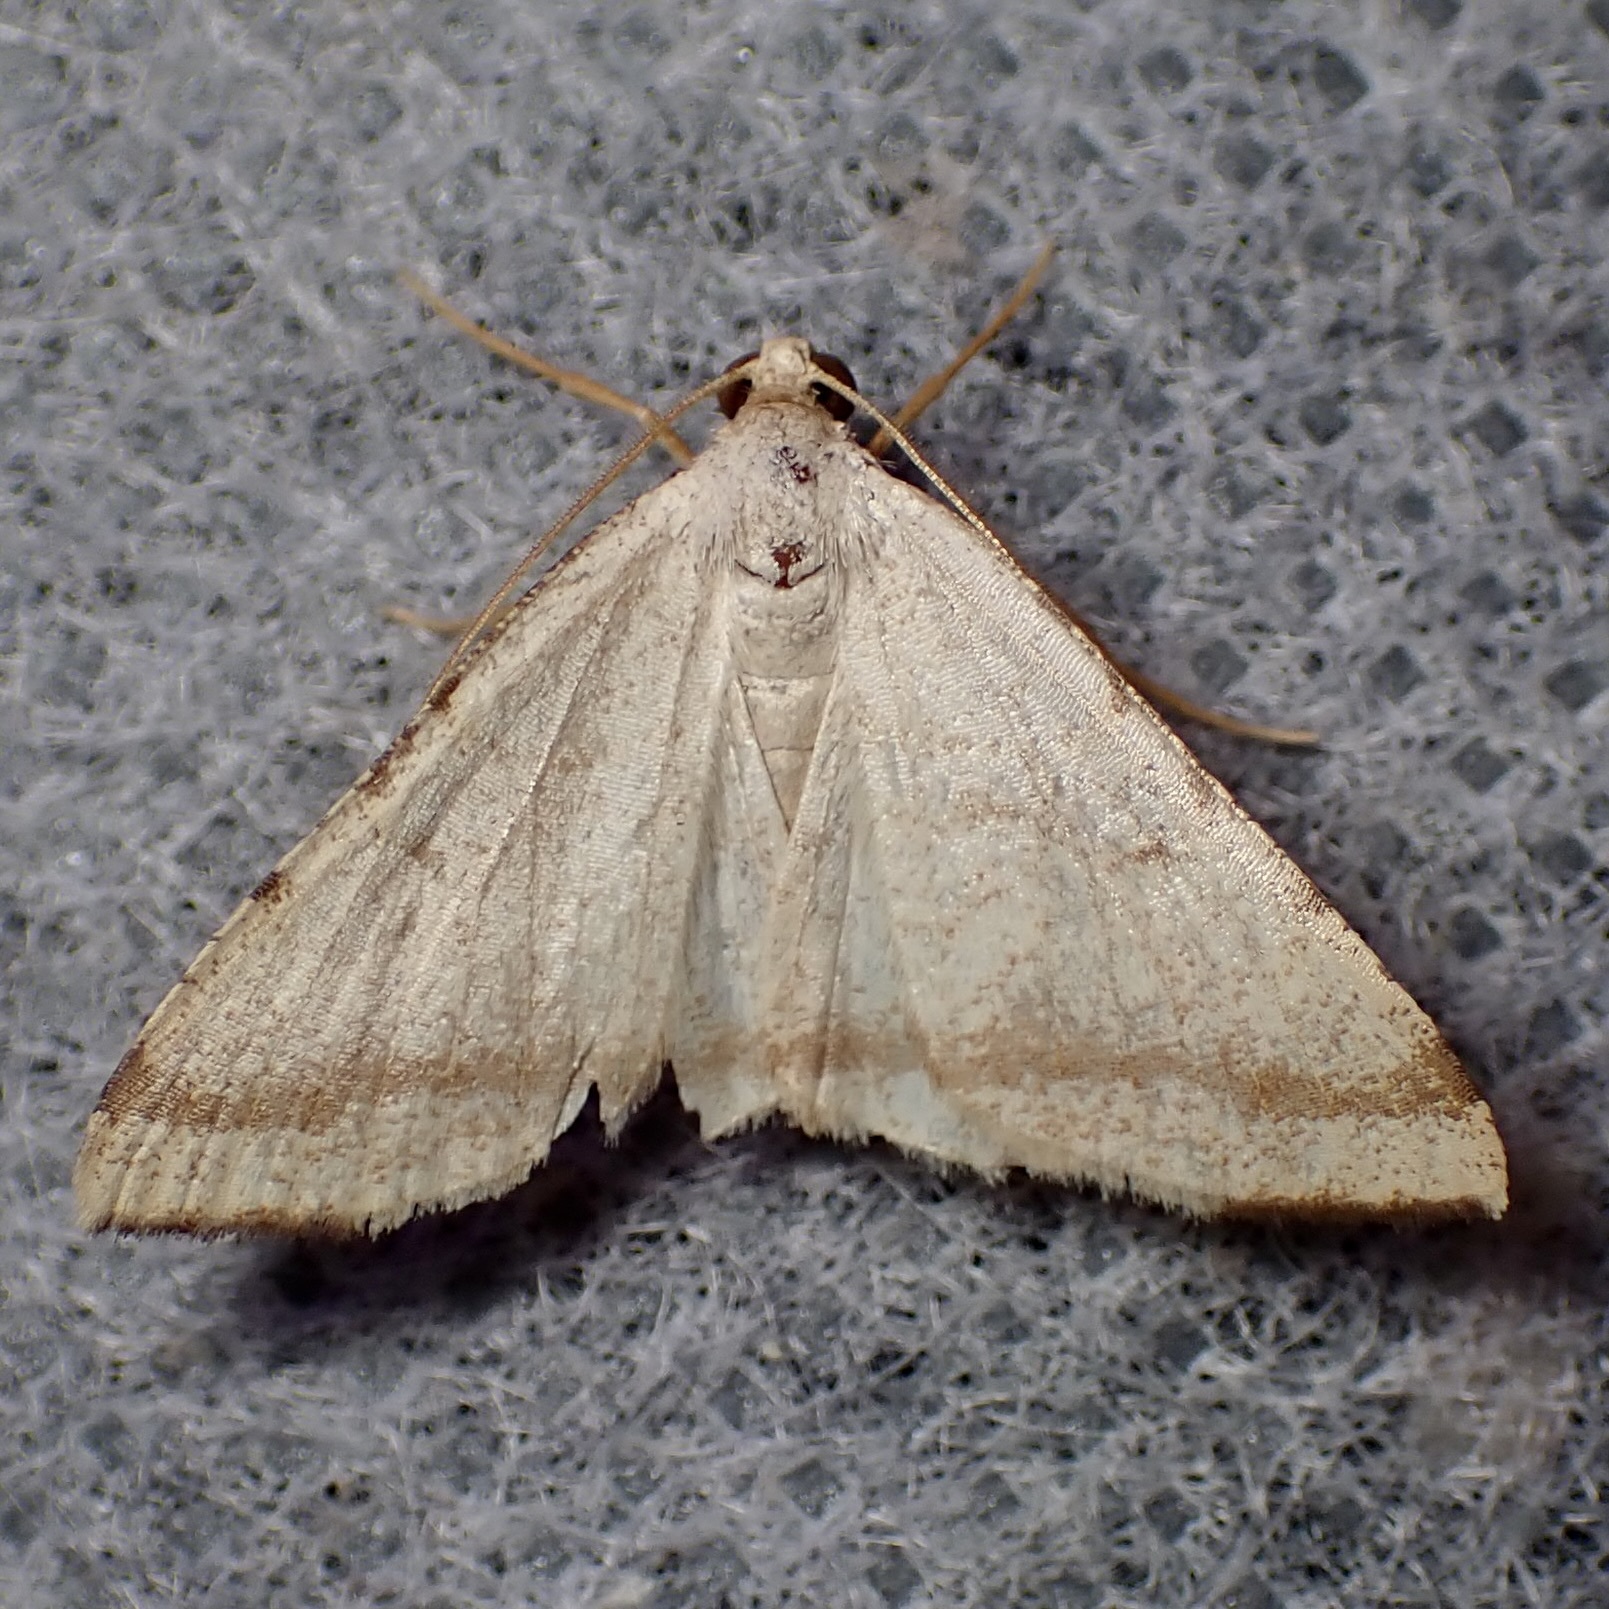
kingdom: Animalia
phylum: Arthropoda
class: Insecta
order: Lepidoptera
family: Geometridae
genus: Macaria
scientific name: Macaria octolineata
